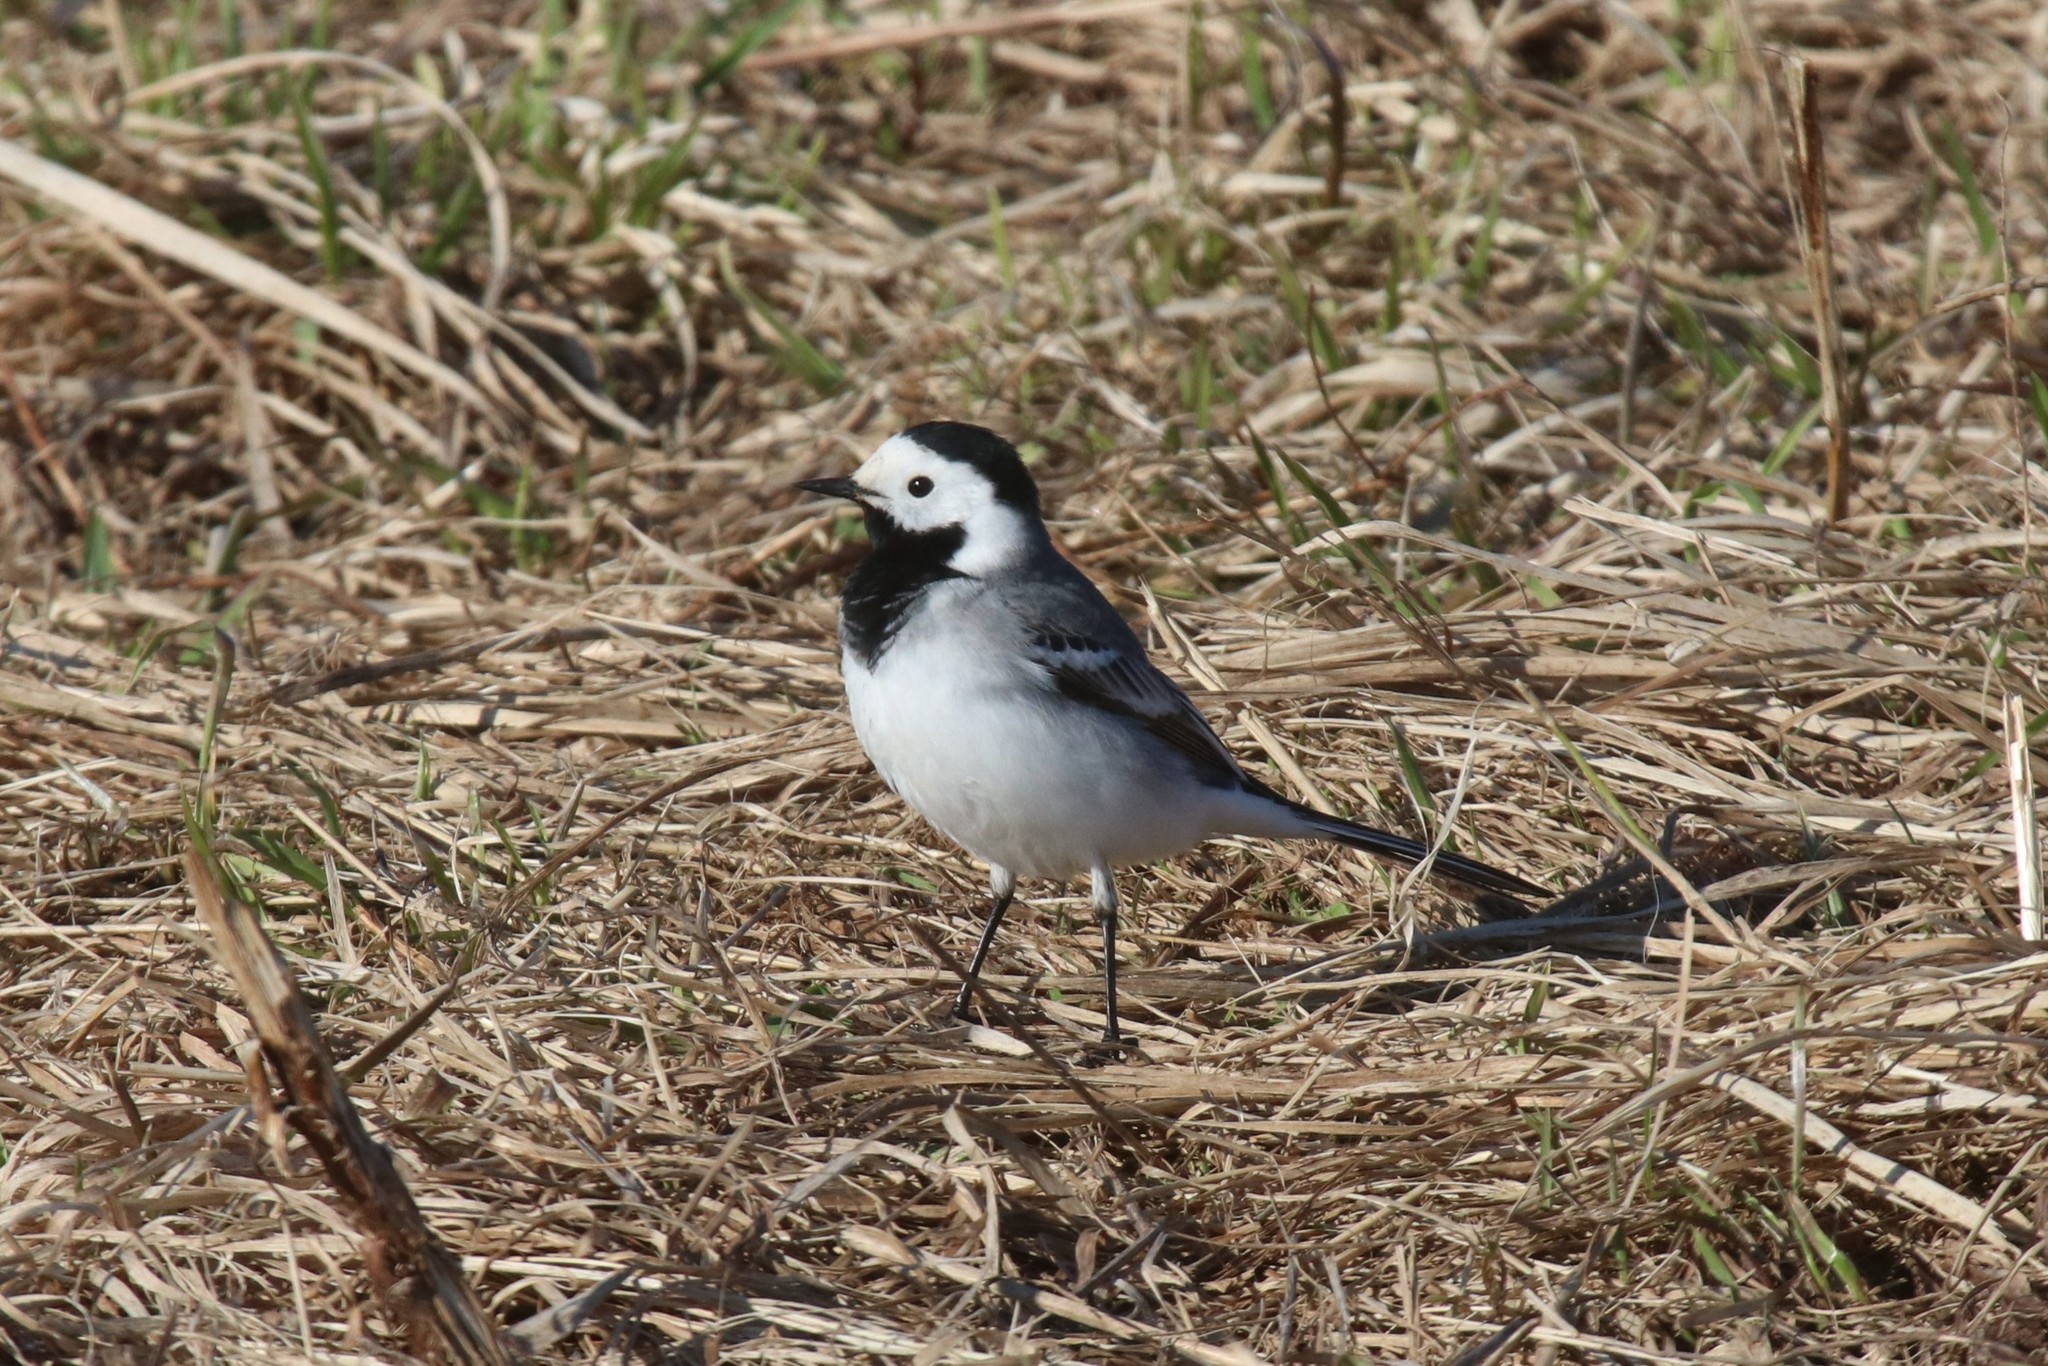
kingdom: Animalia
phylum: Chordata
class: Aves
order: Passeriformes
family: Motacillidae
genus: Motacilla
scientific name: Motacilla alba
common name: White wagtail
